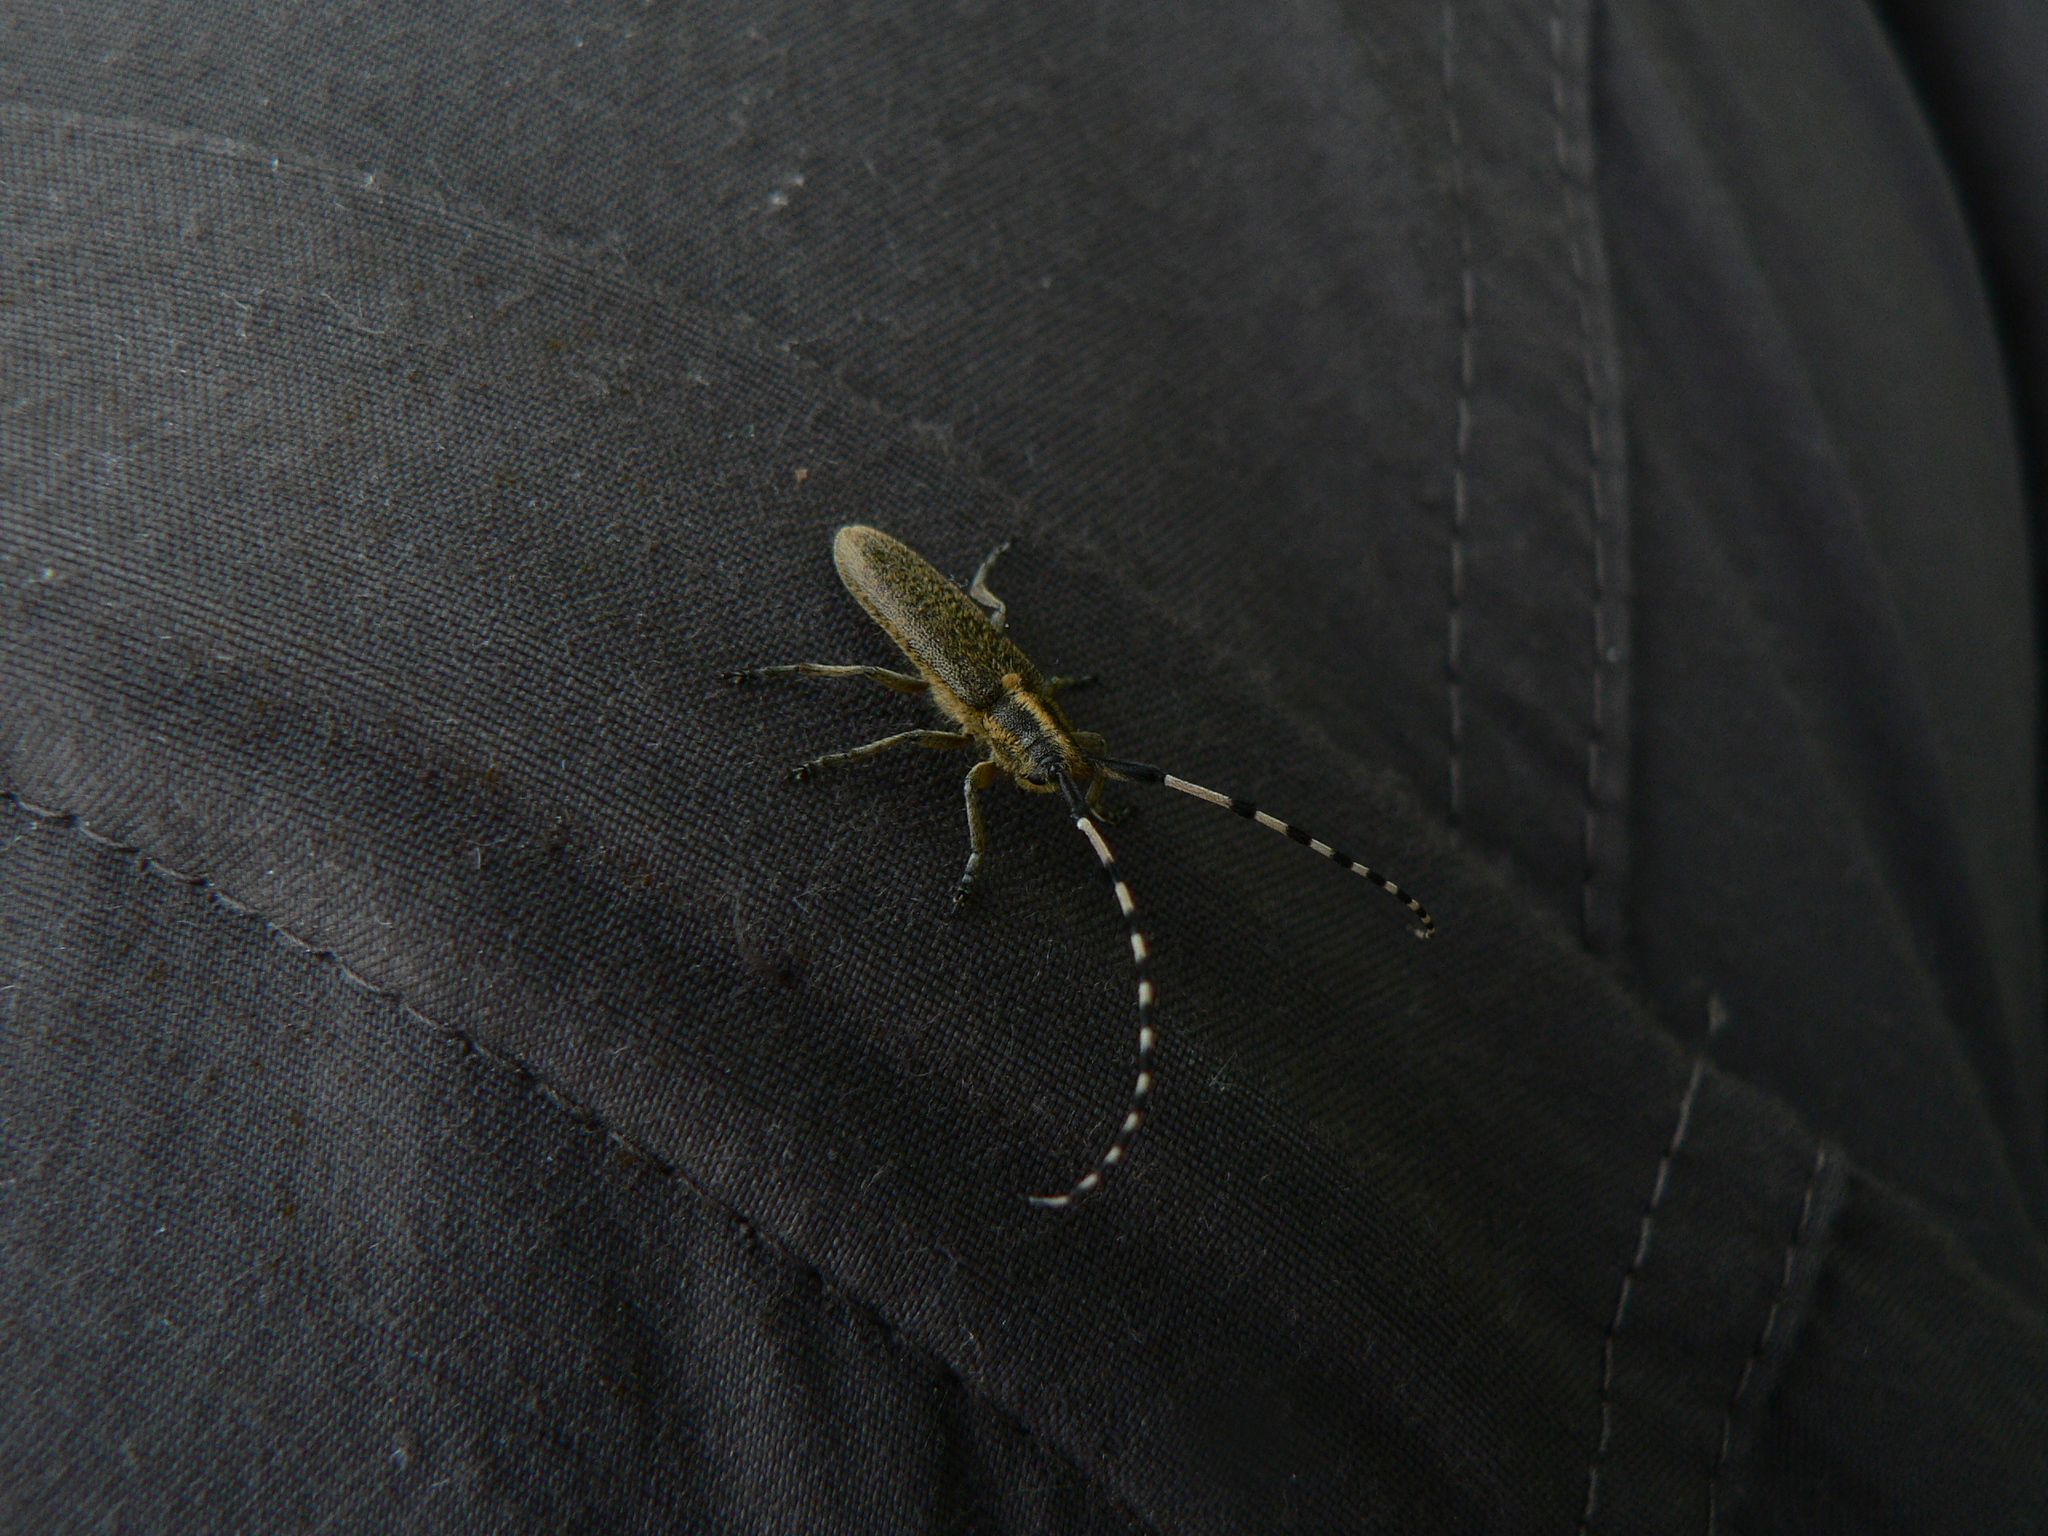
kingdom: Animalia
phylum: Arthropoda
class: Insecta
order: Coleoptera
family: Cerambycidae
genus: Agapanthia
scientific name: Agapanthia villosoviridescens
